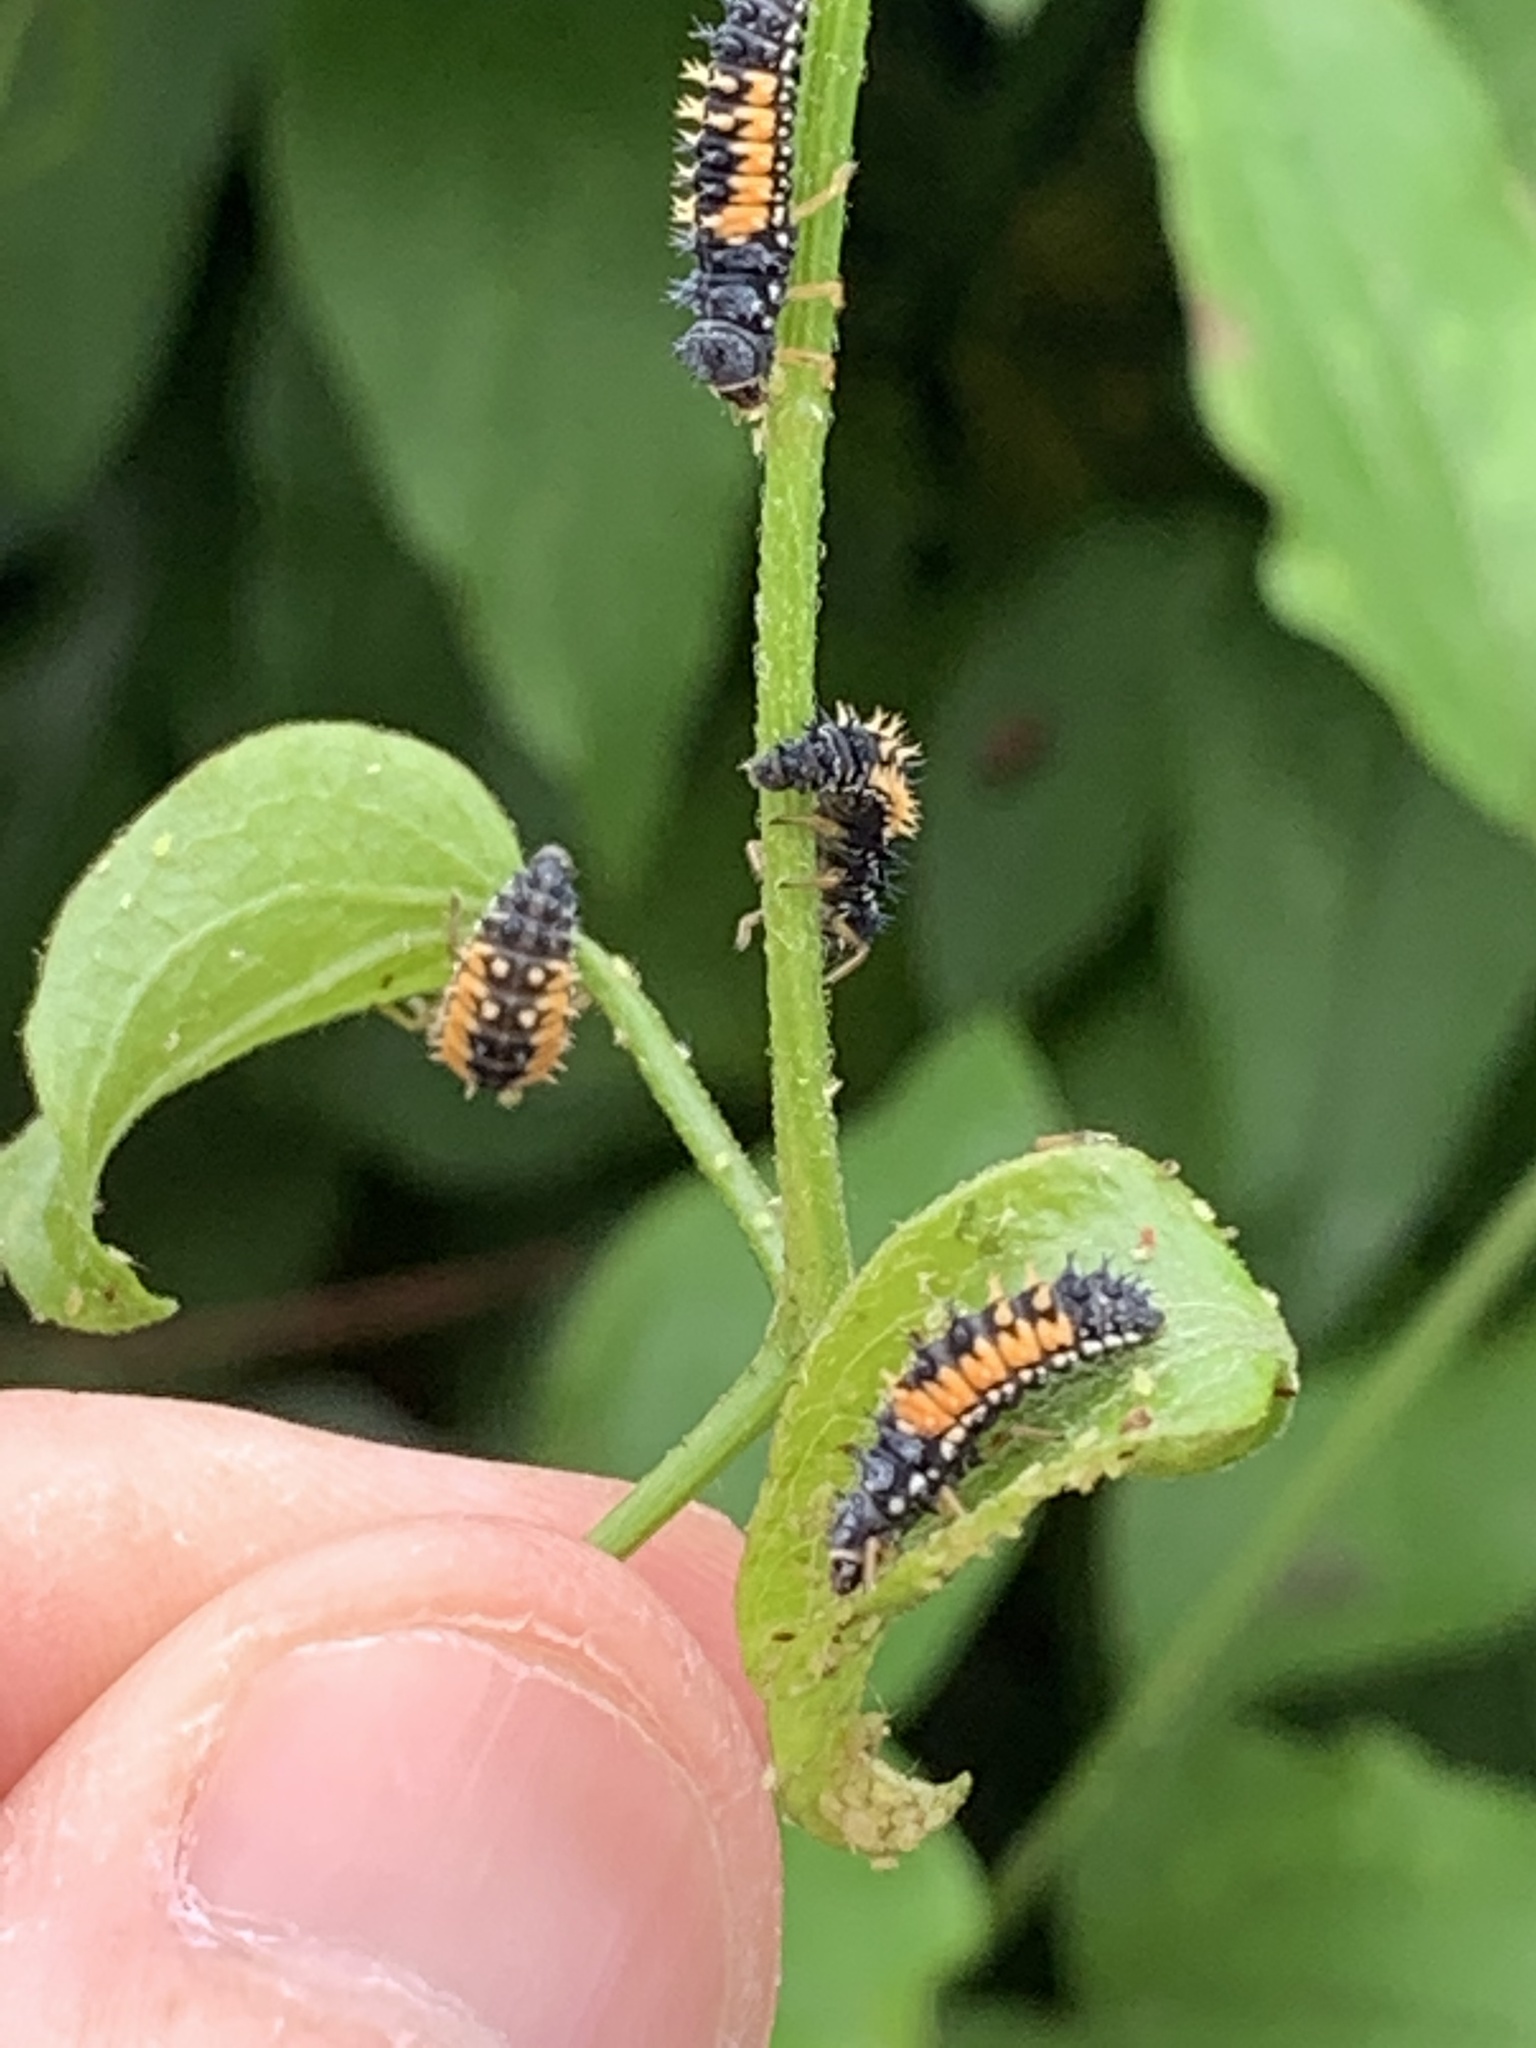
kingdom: Animalia
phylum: Arthropoda
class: Insecta
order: Coleoptera
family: Coccinellidae
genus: Harmonia
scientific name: Harmonia axyridis
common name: Harlequin ladybird
